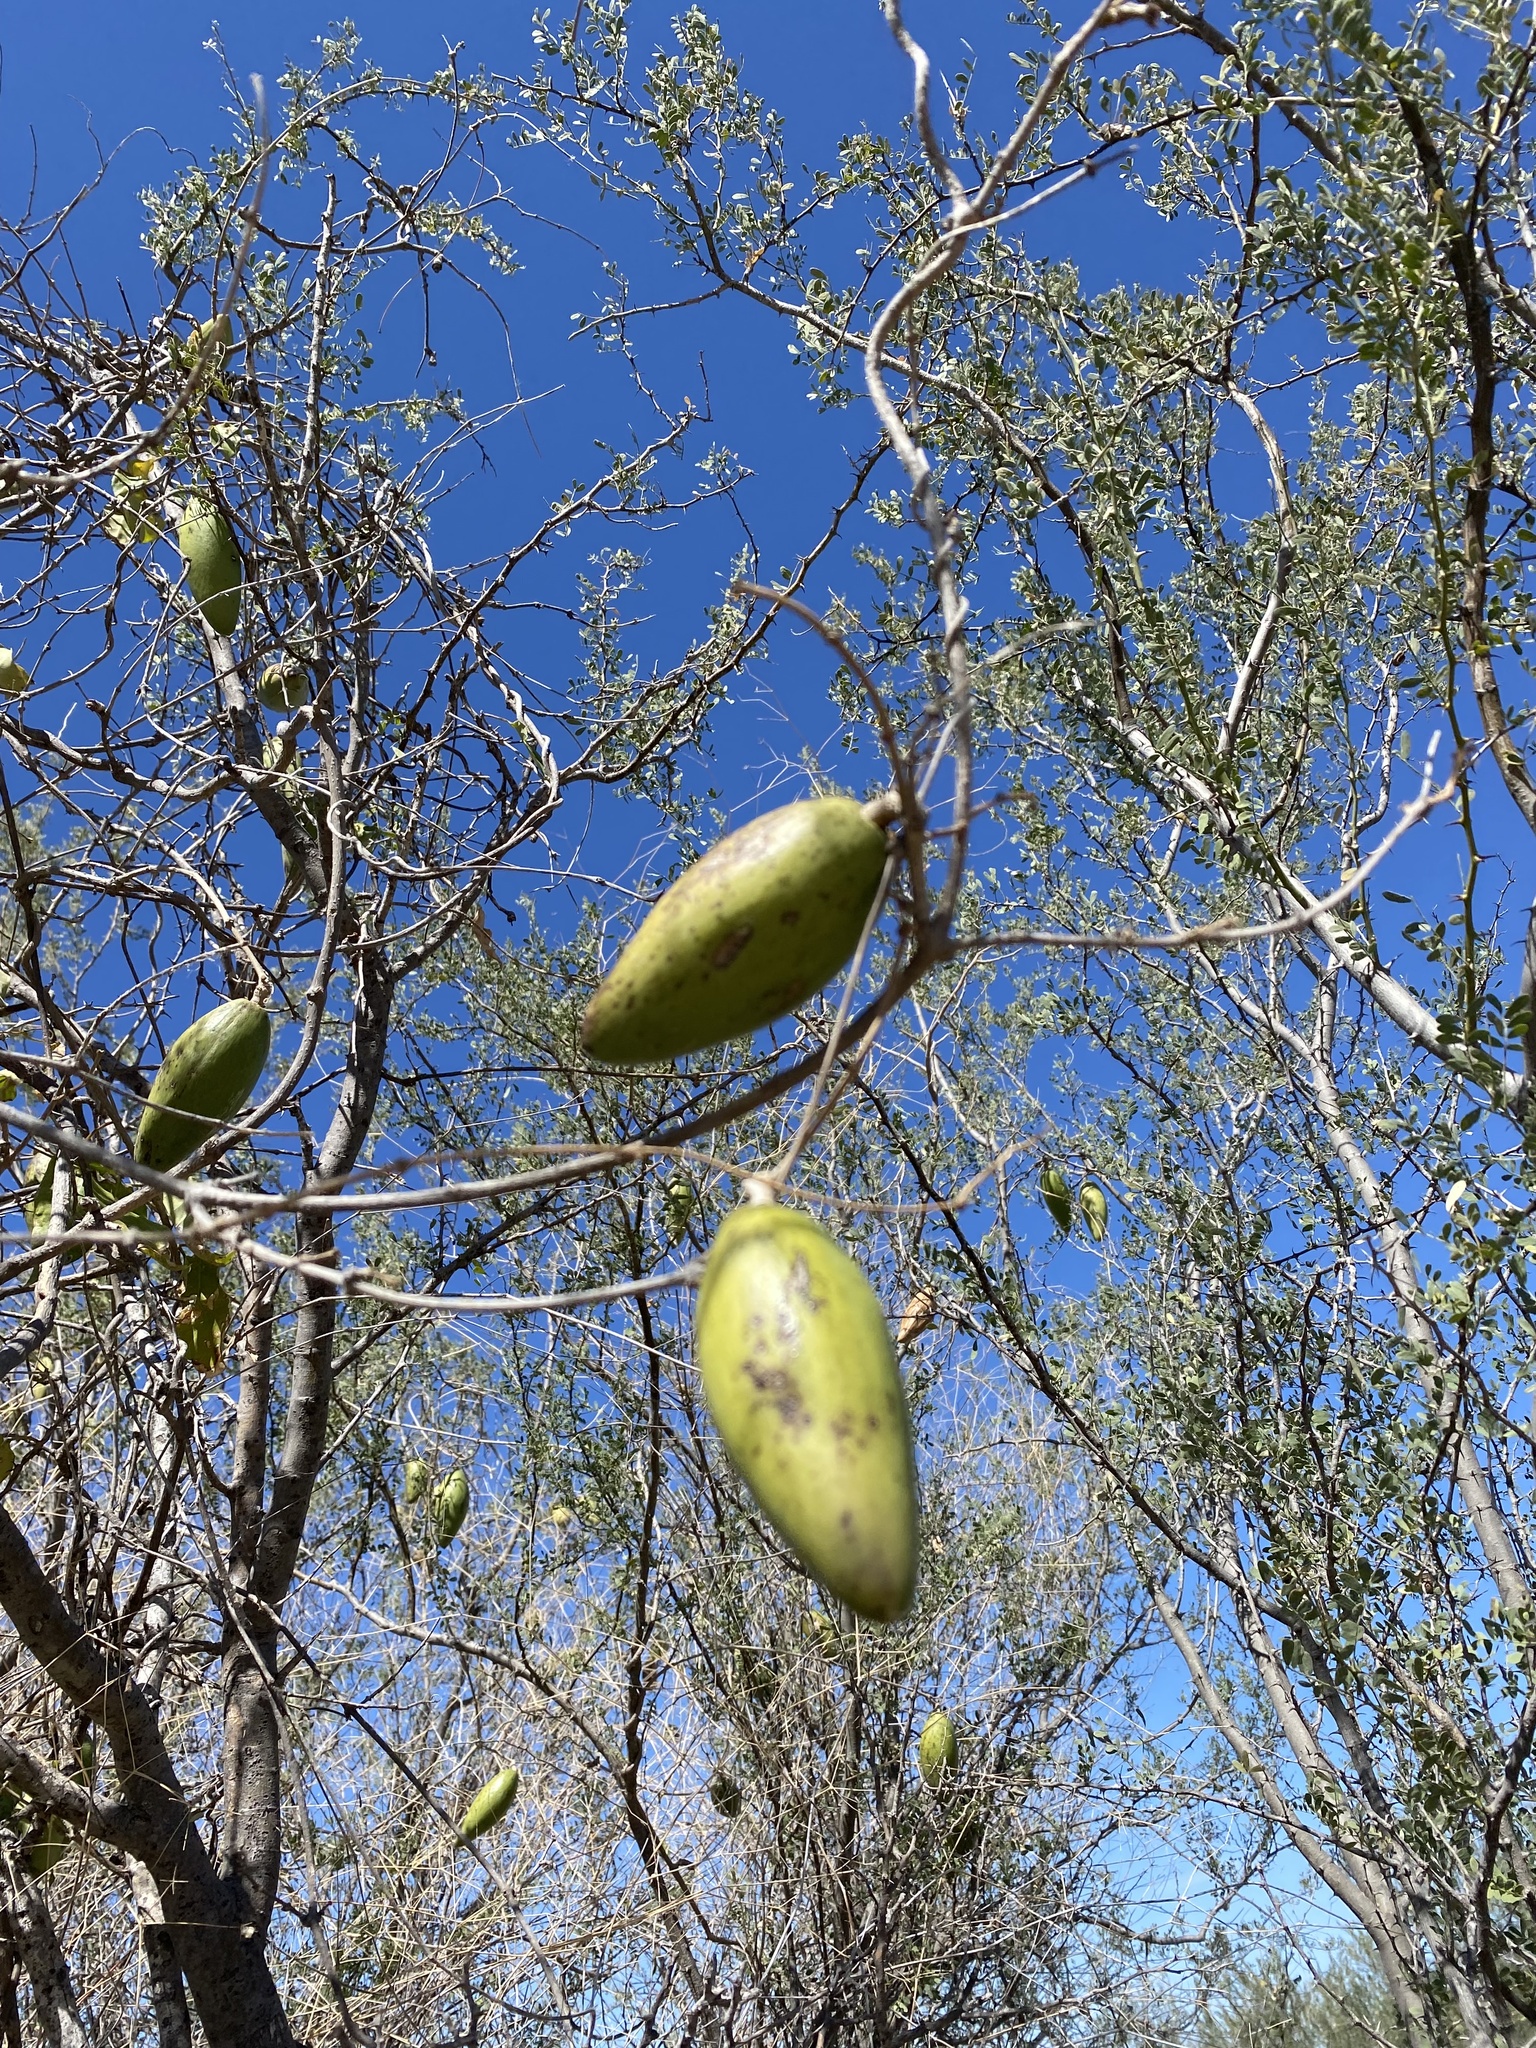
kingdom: Plantae
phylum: Tracheophyta
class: Magnoliopsida
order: Gentianales
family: Apocynaceae
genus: Ruehssia
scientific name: Ruehssia edulis
